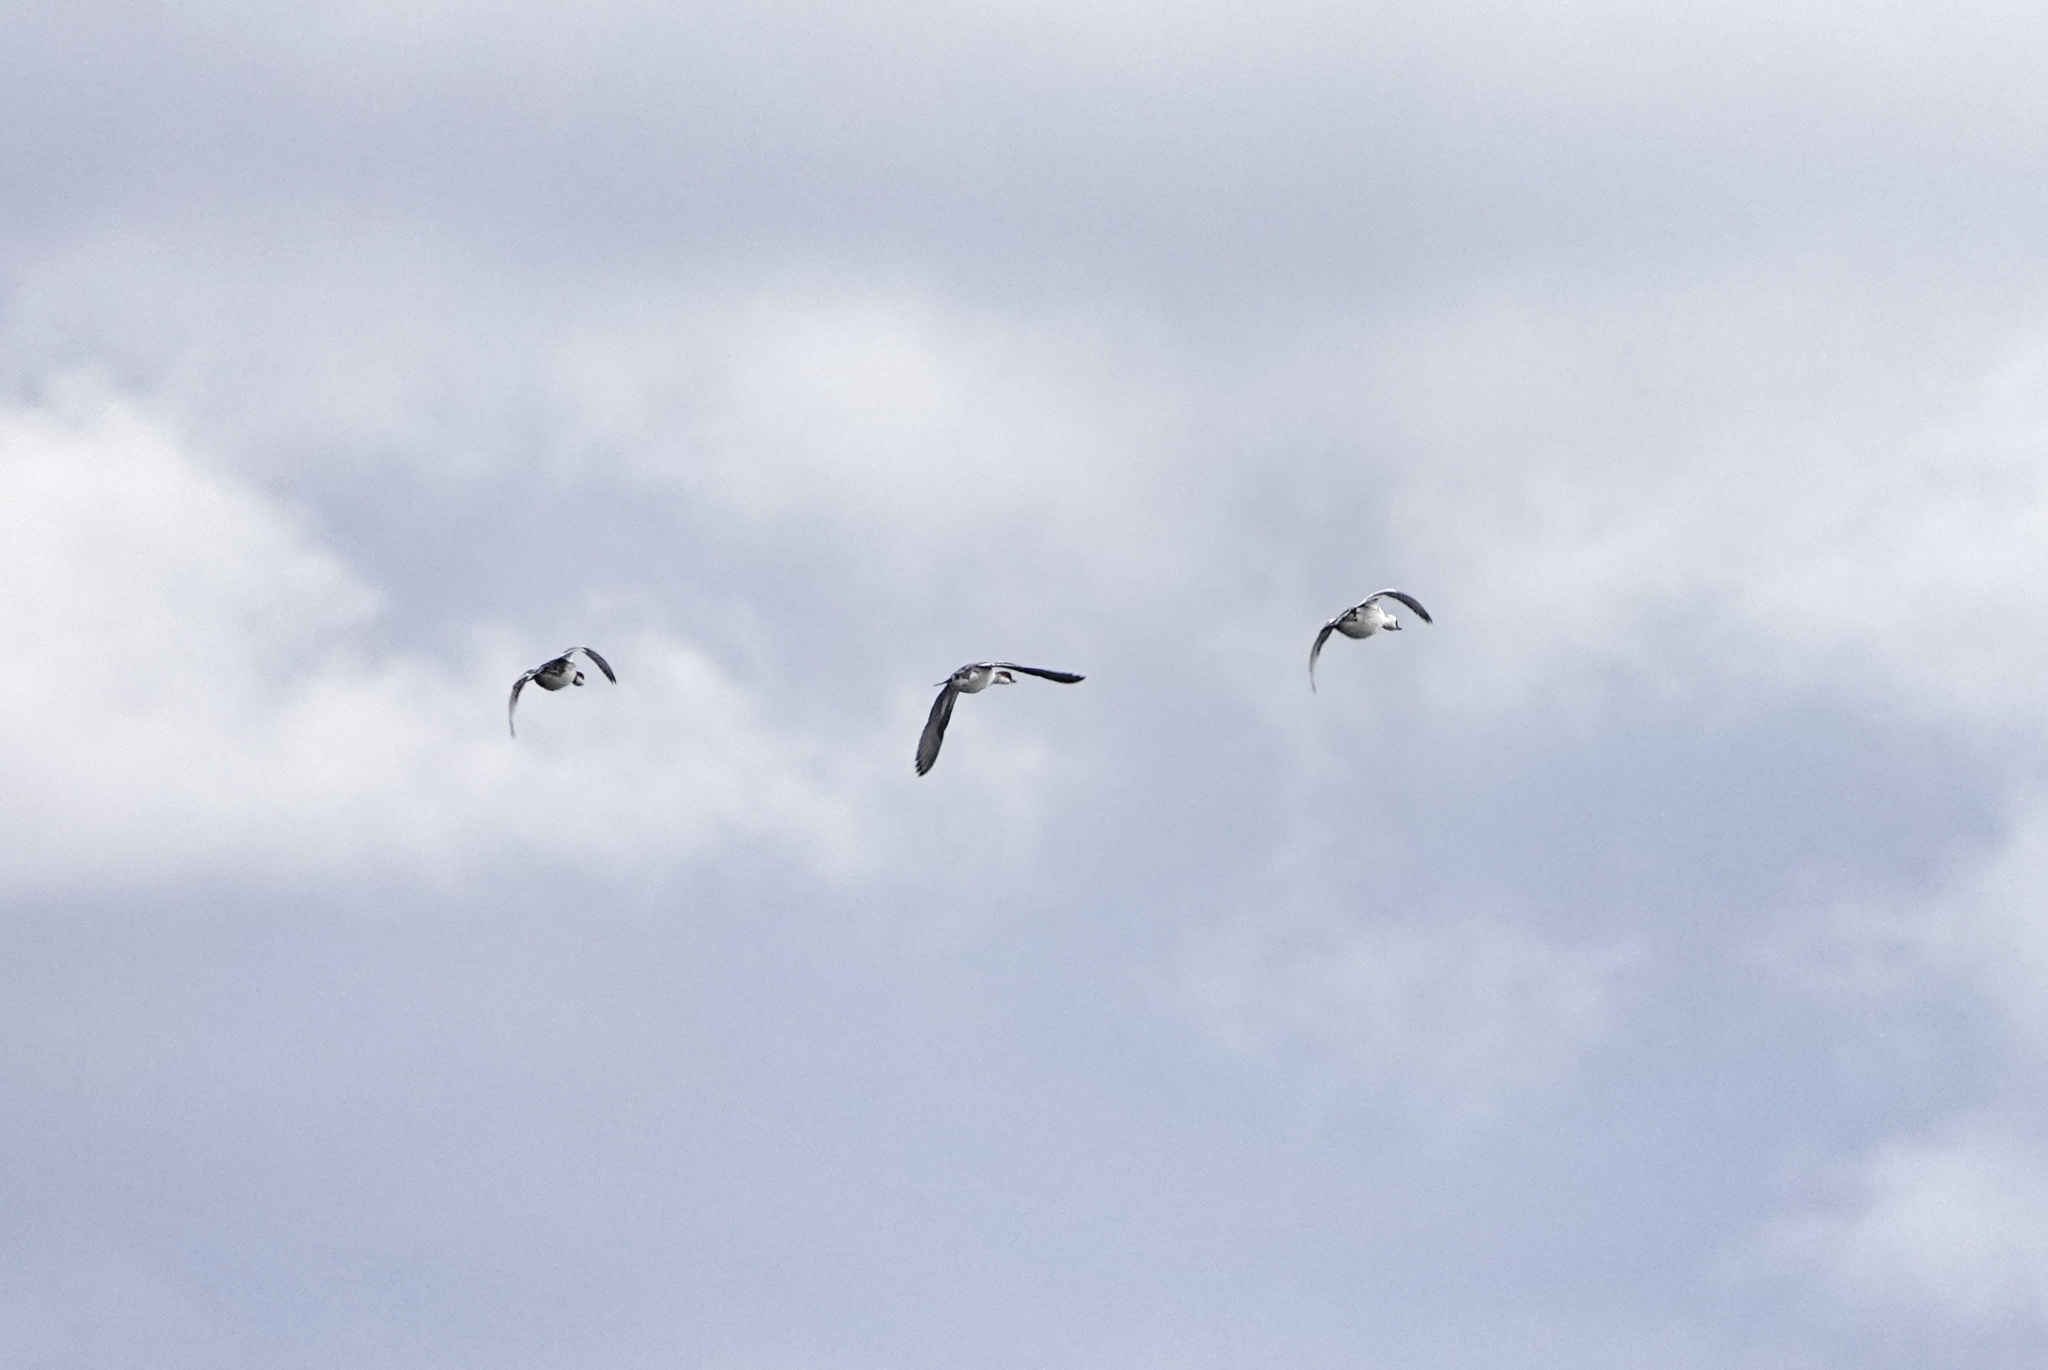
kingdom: Animalia
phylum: Chordata
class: Aves
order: Anseriformes
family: Anatidae
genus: Mergellus
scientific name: Mergellus albellus
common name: Smew
